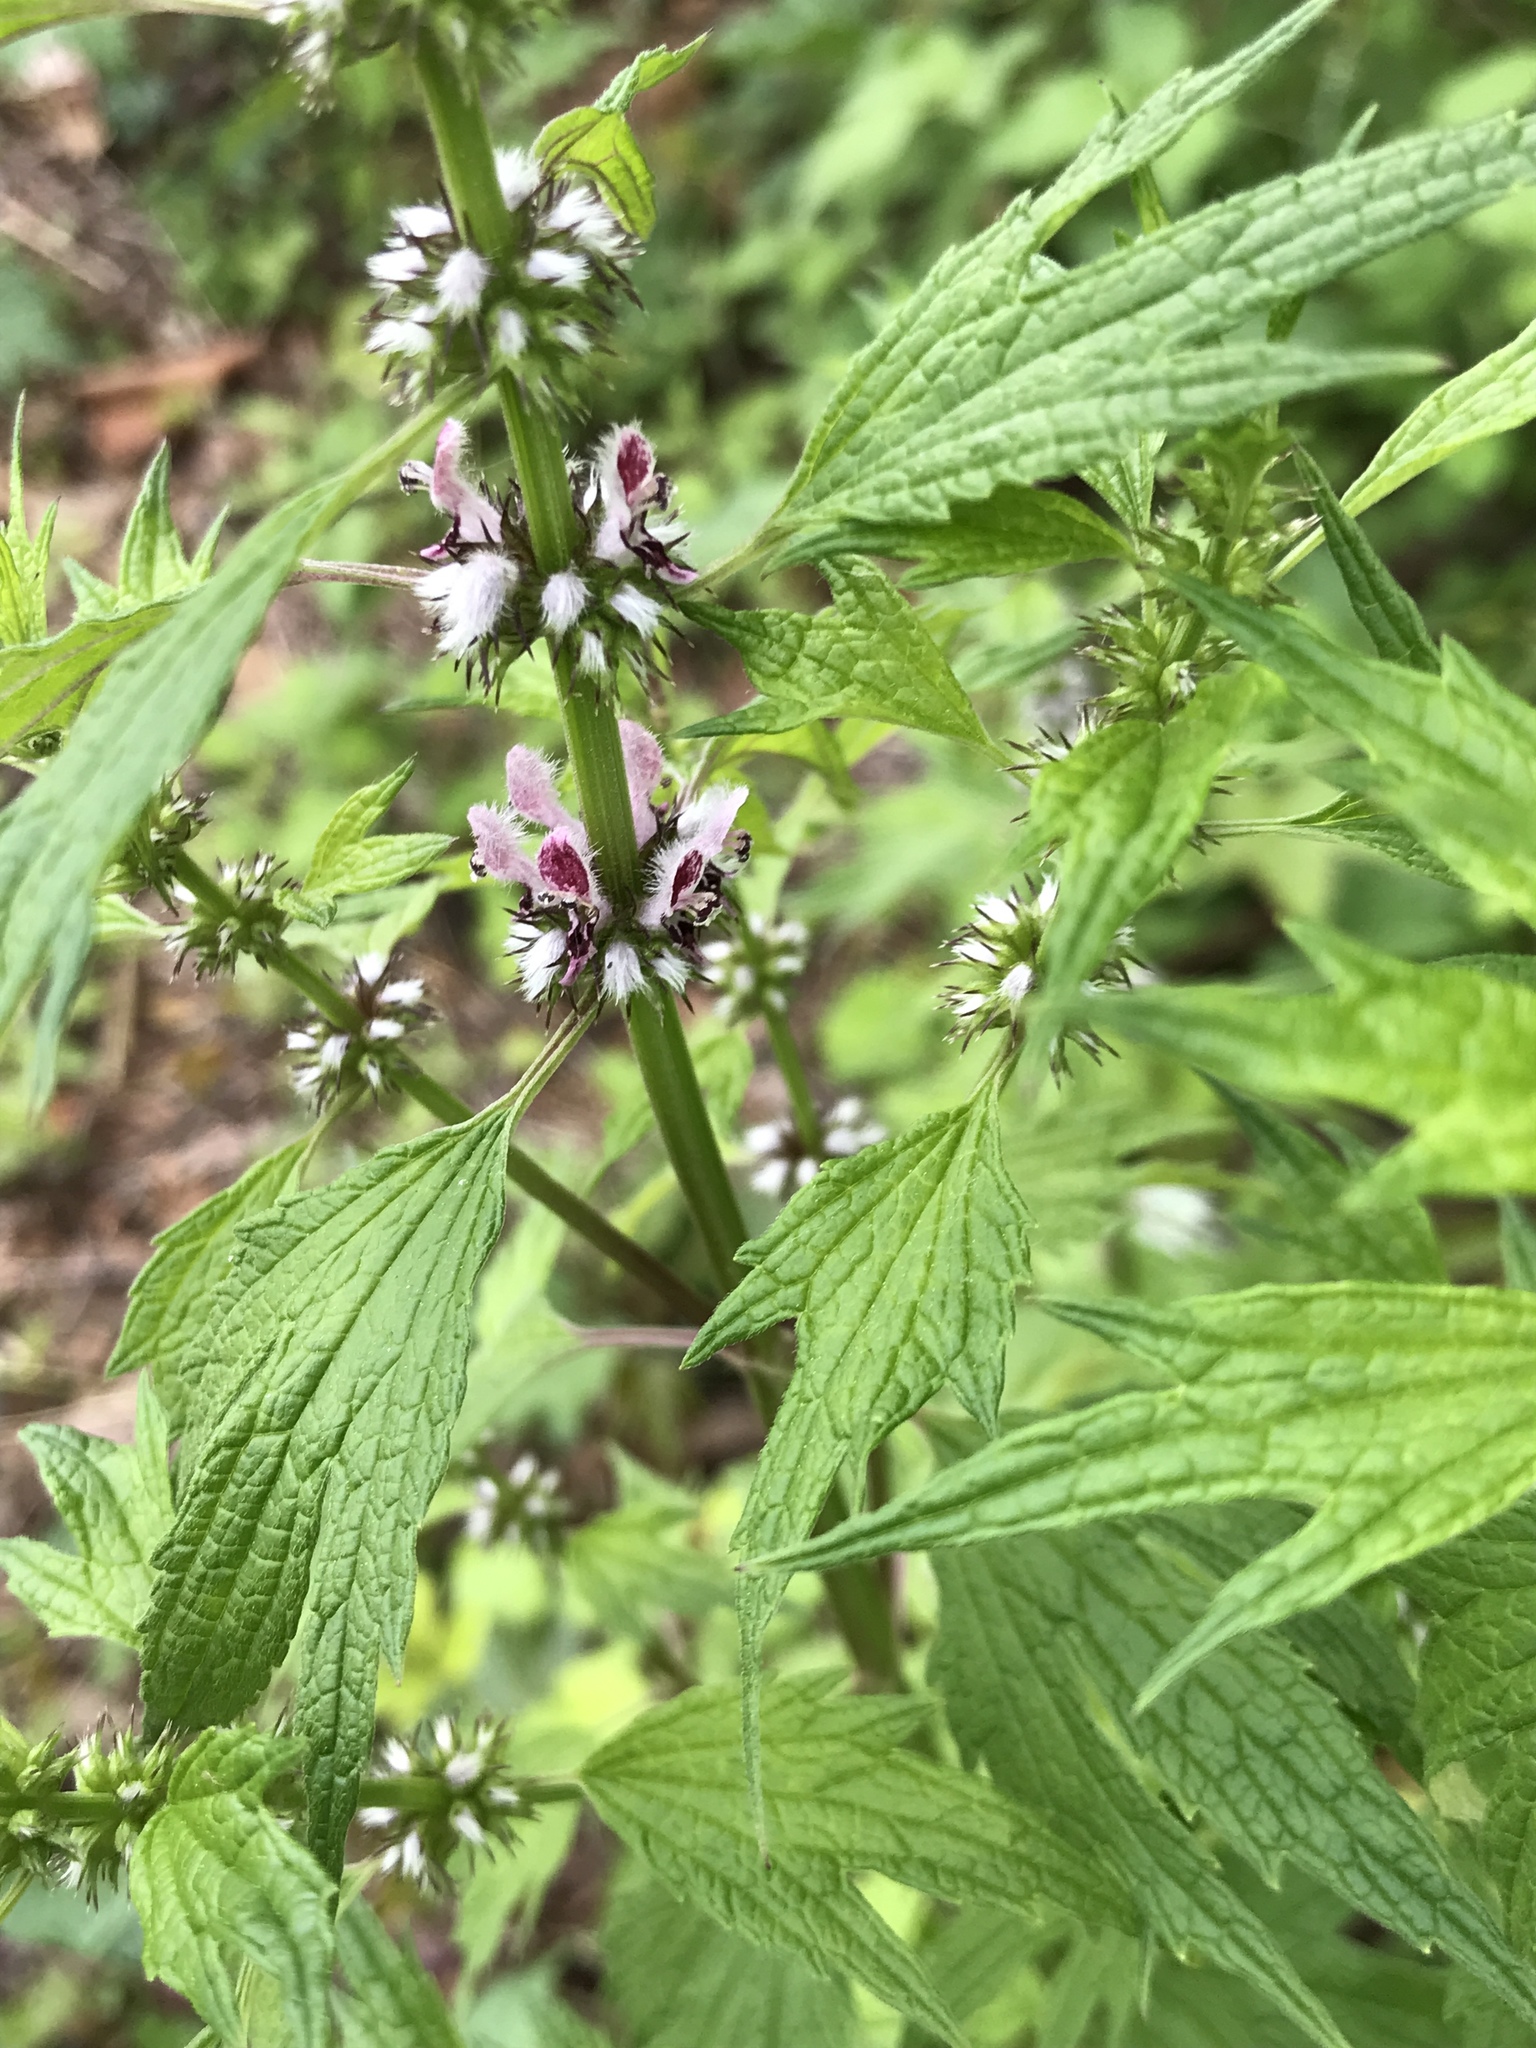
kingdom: Plantae
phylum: Tracheophyta
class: Magnoliopsida
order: Lamiales
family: Lamiaceae
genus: Leonurus
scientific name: Leonurus cardiaca
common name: Motherwort
